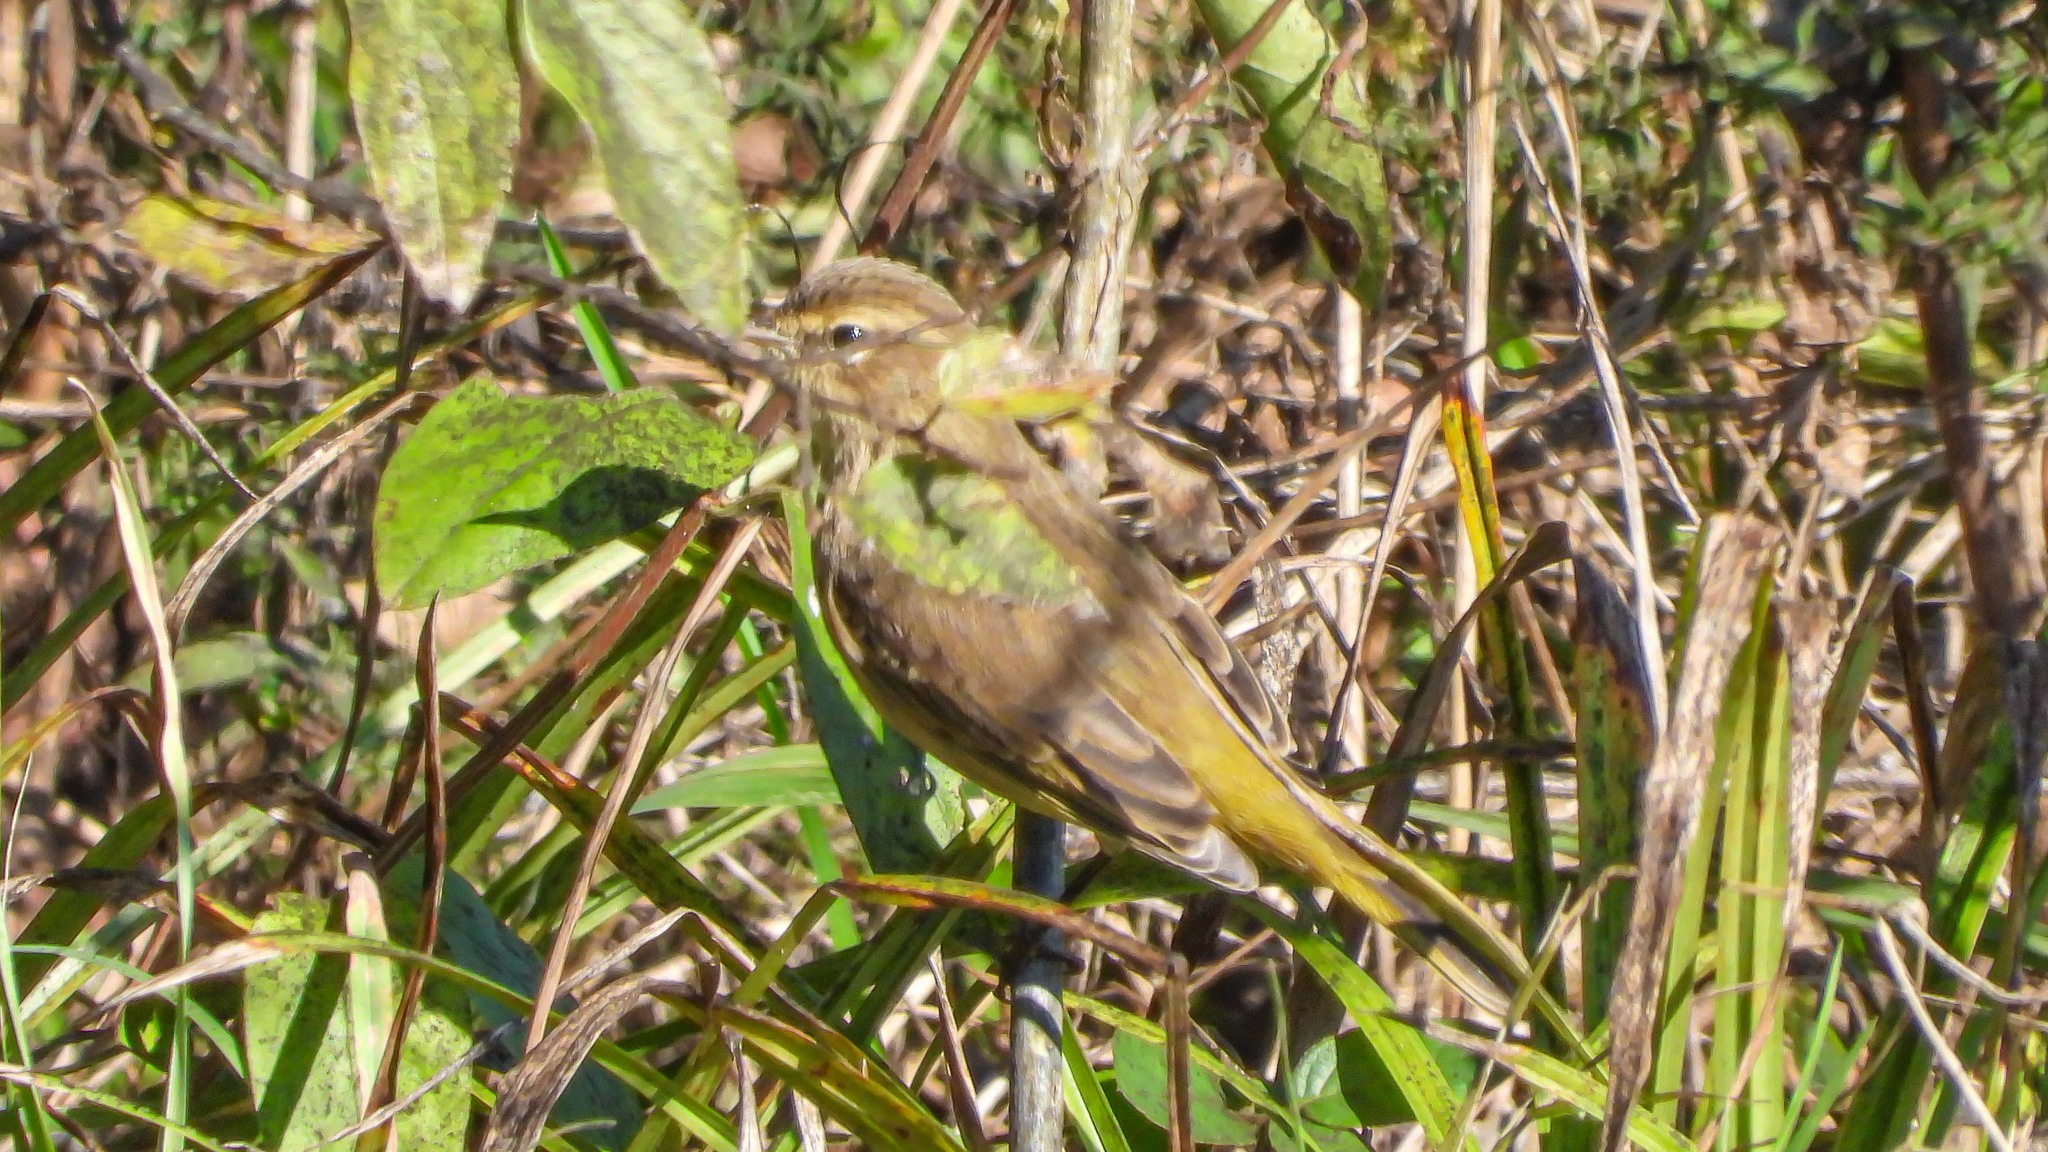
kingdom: Animalia
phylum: Chordata
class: Aves
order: Passeriformes
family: Parulidae
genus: Setophaga
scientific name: Setophaga palmarum
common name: Palm warbler
